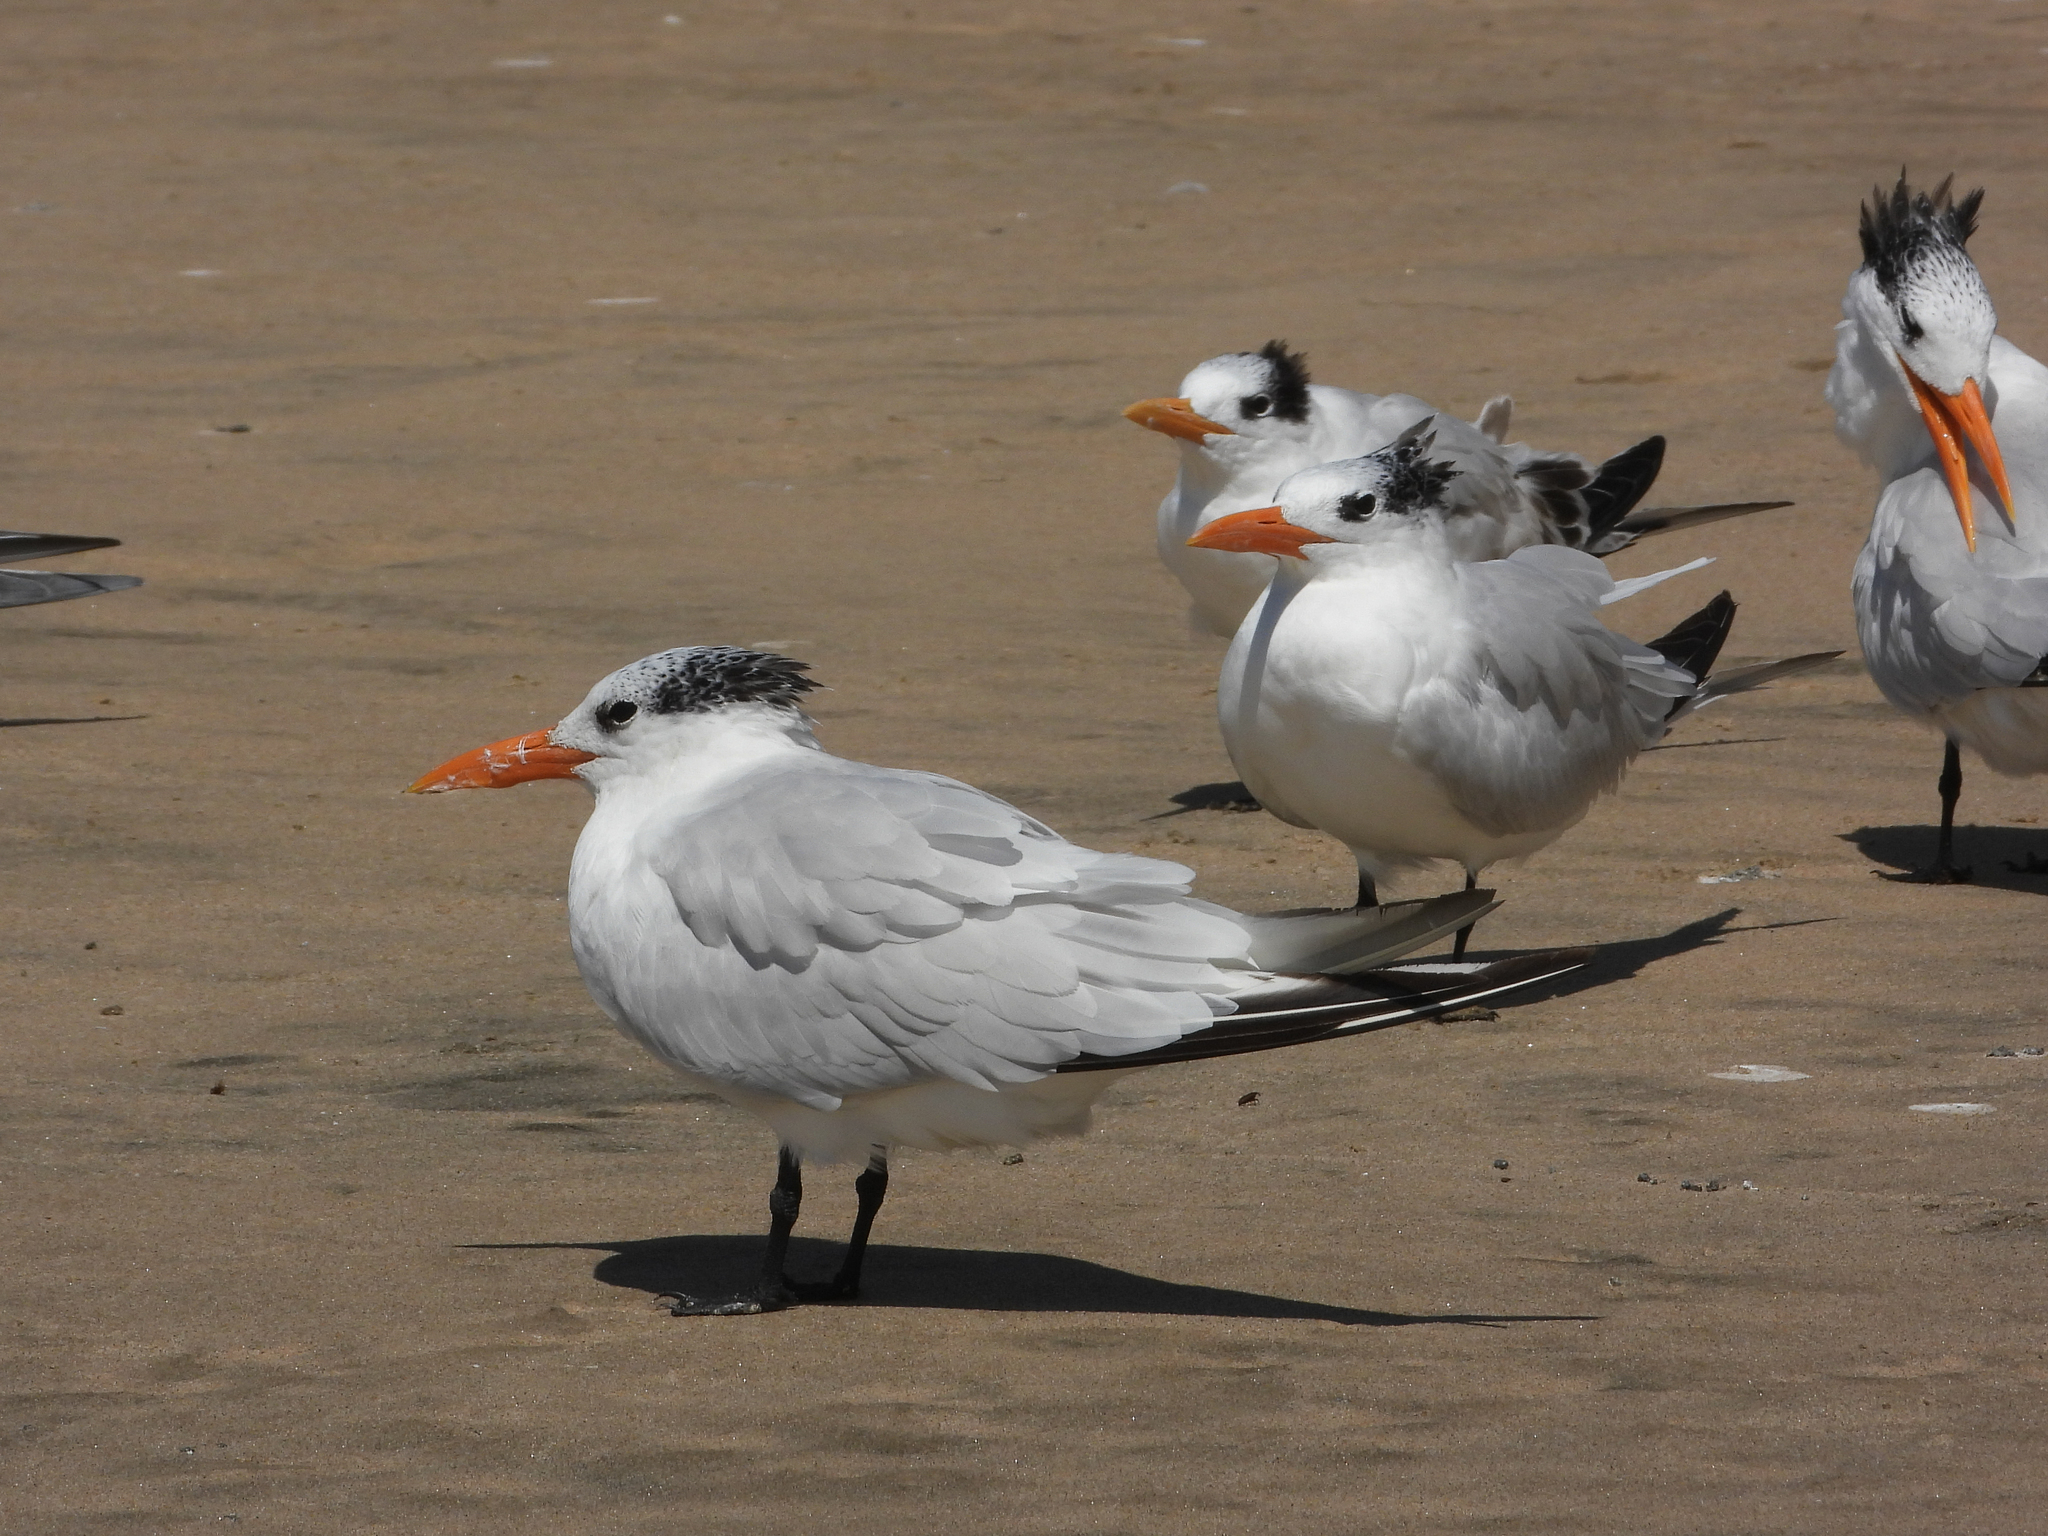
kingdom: Animalia
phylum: Chordata
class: Aves
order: Charadriiformes
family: Laridae
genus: Thalasseus
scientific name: Thalasseus maximus
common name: Royal tern
